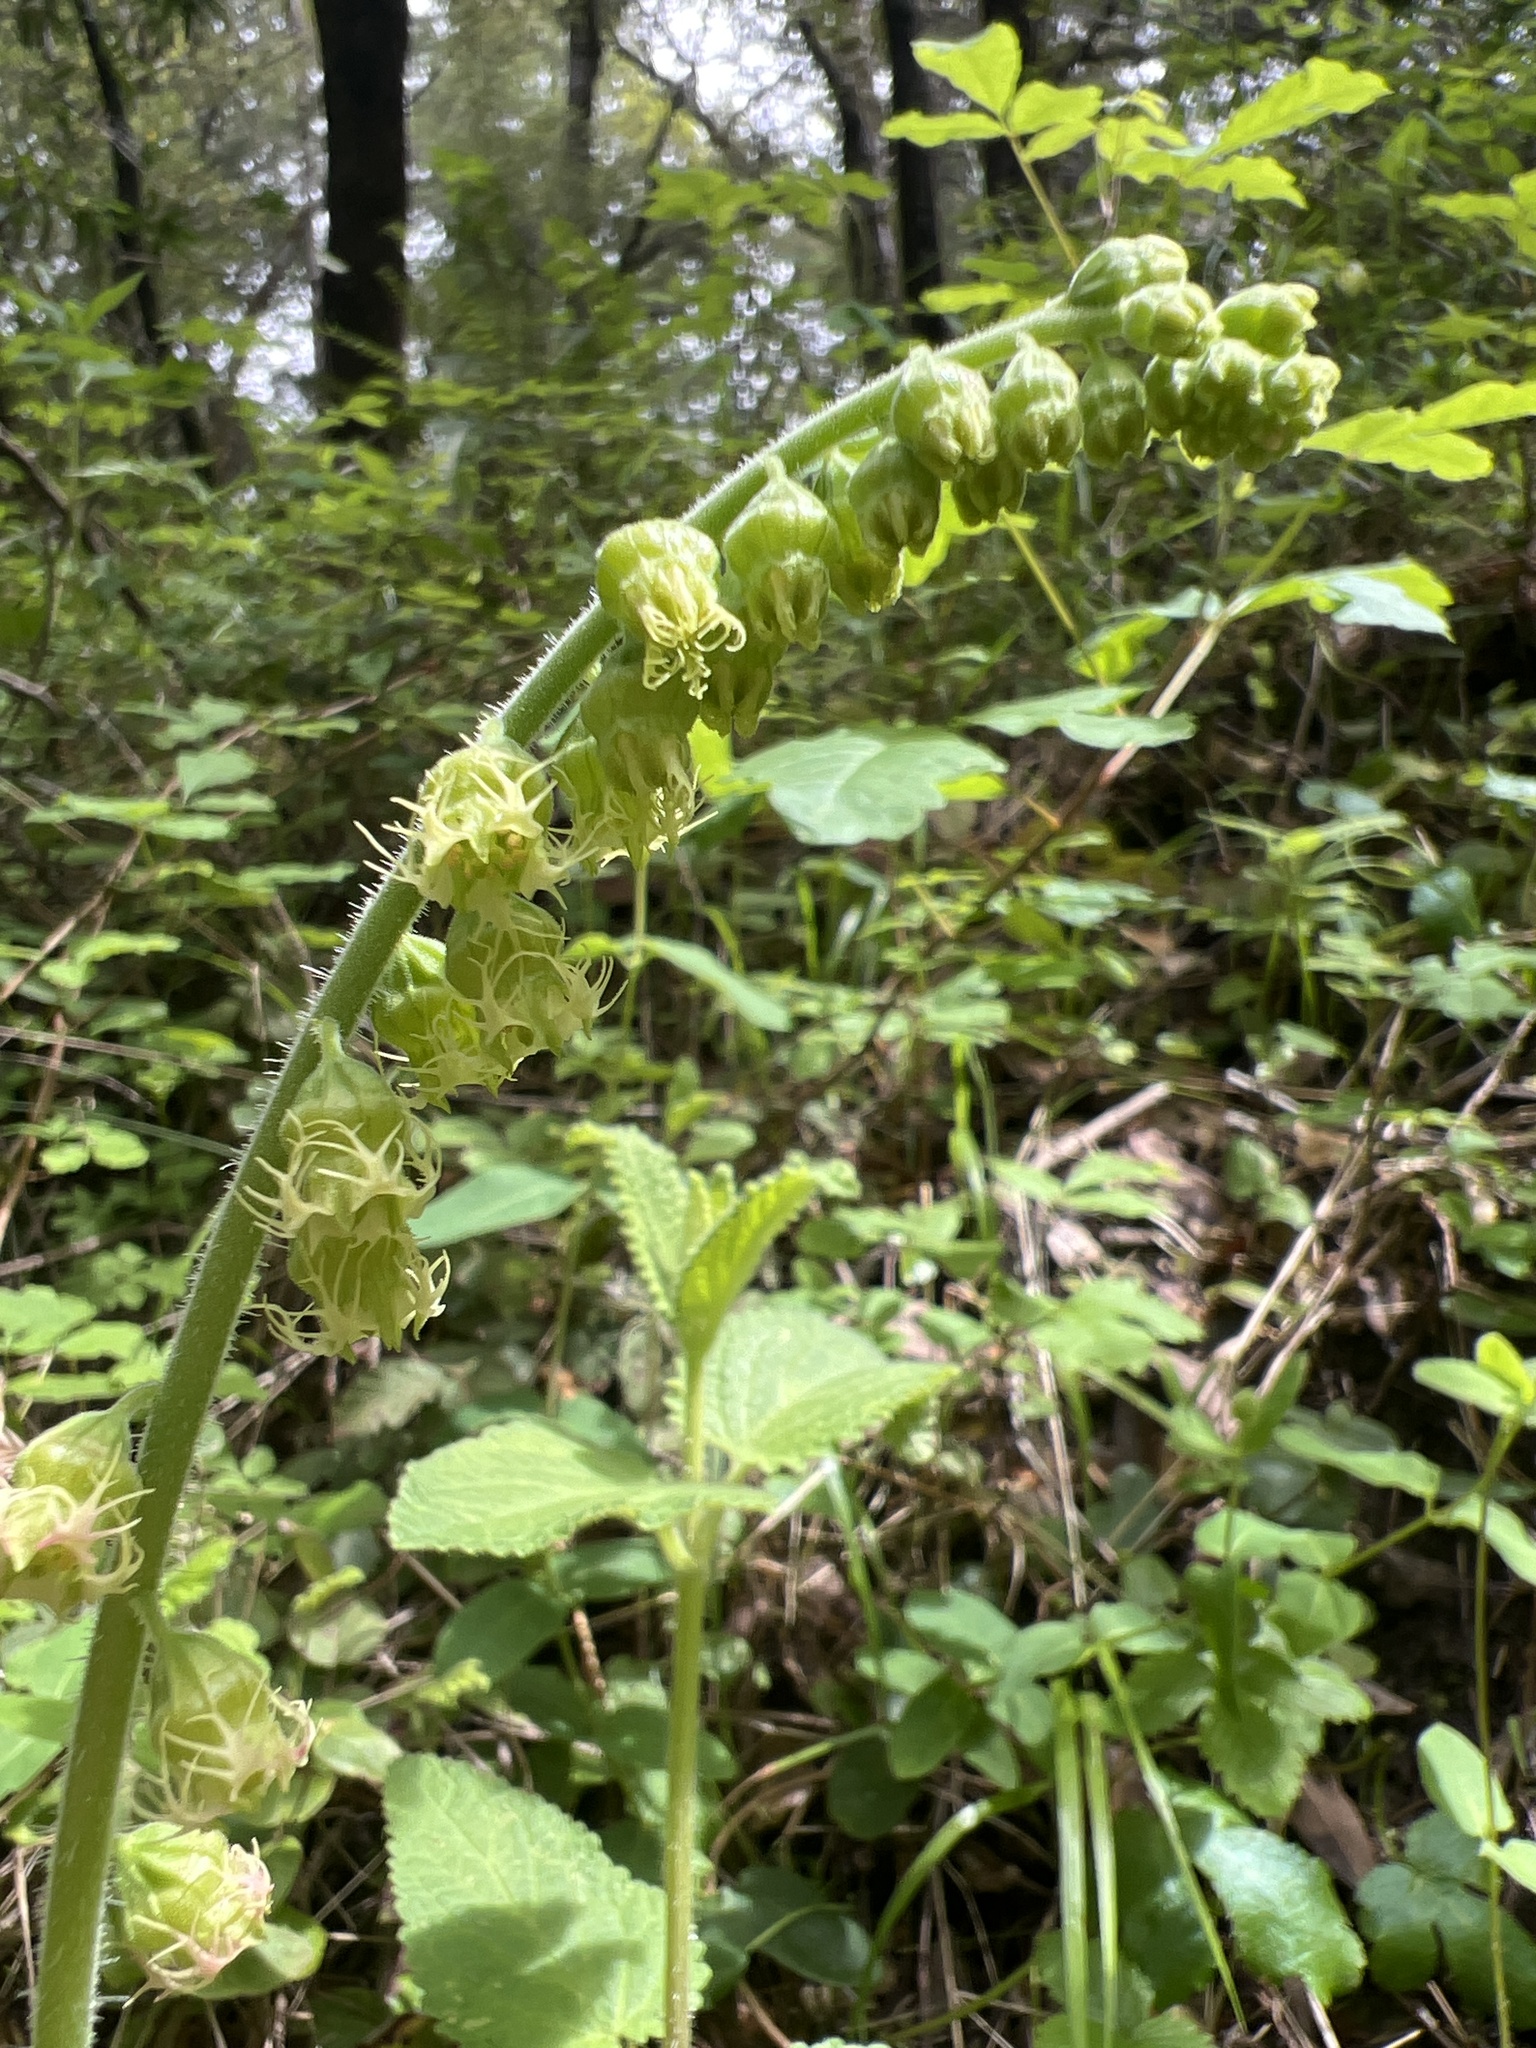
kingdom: Plantae
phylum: Tracheophyta
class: Magnoliopsida
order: Saxifragales
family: Saxifragaceae
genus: Tellima
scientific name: Tellima grandiflora
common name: Fringecups
